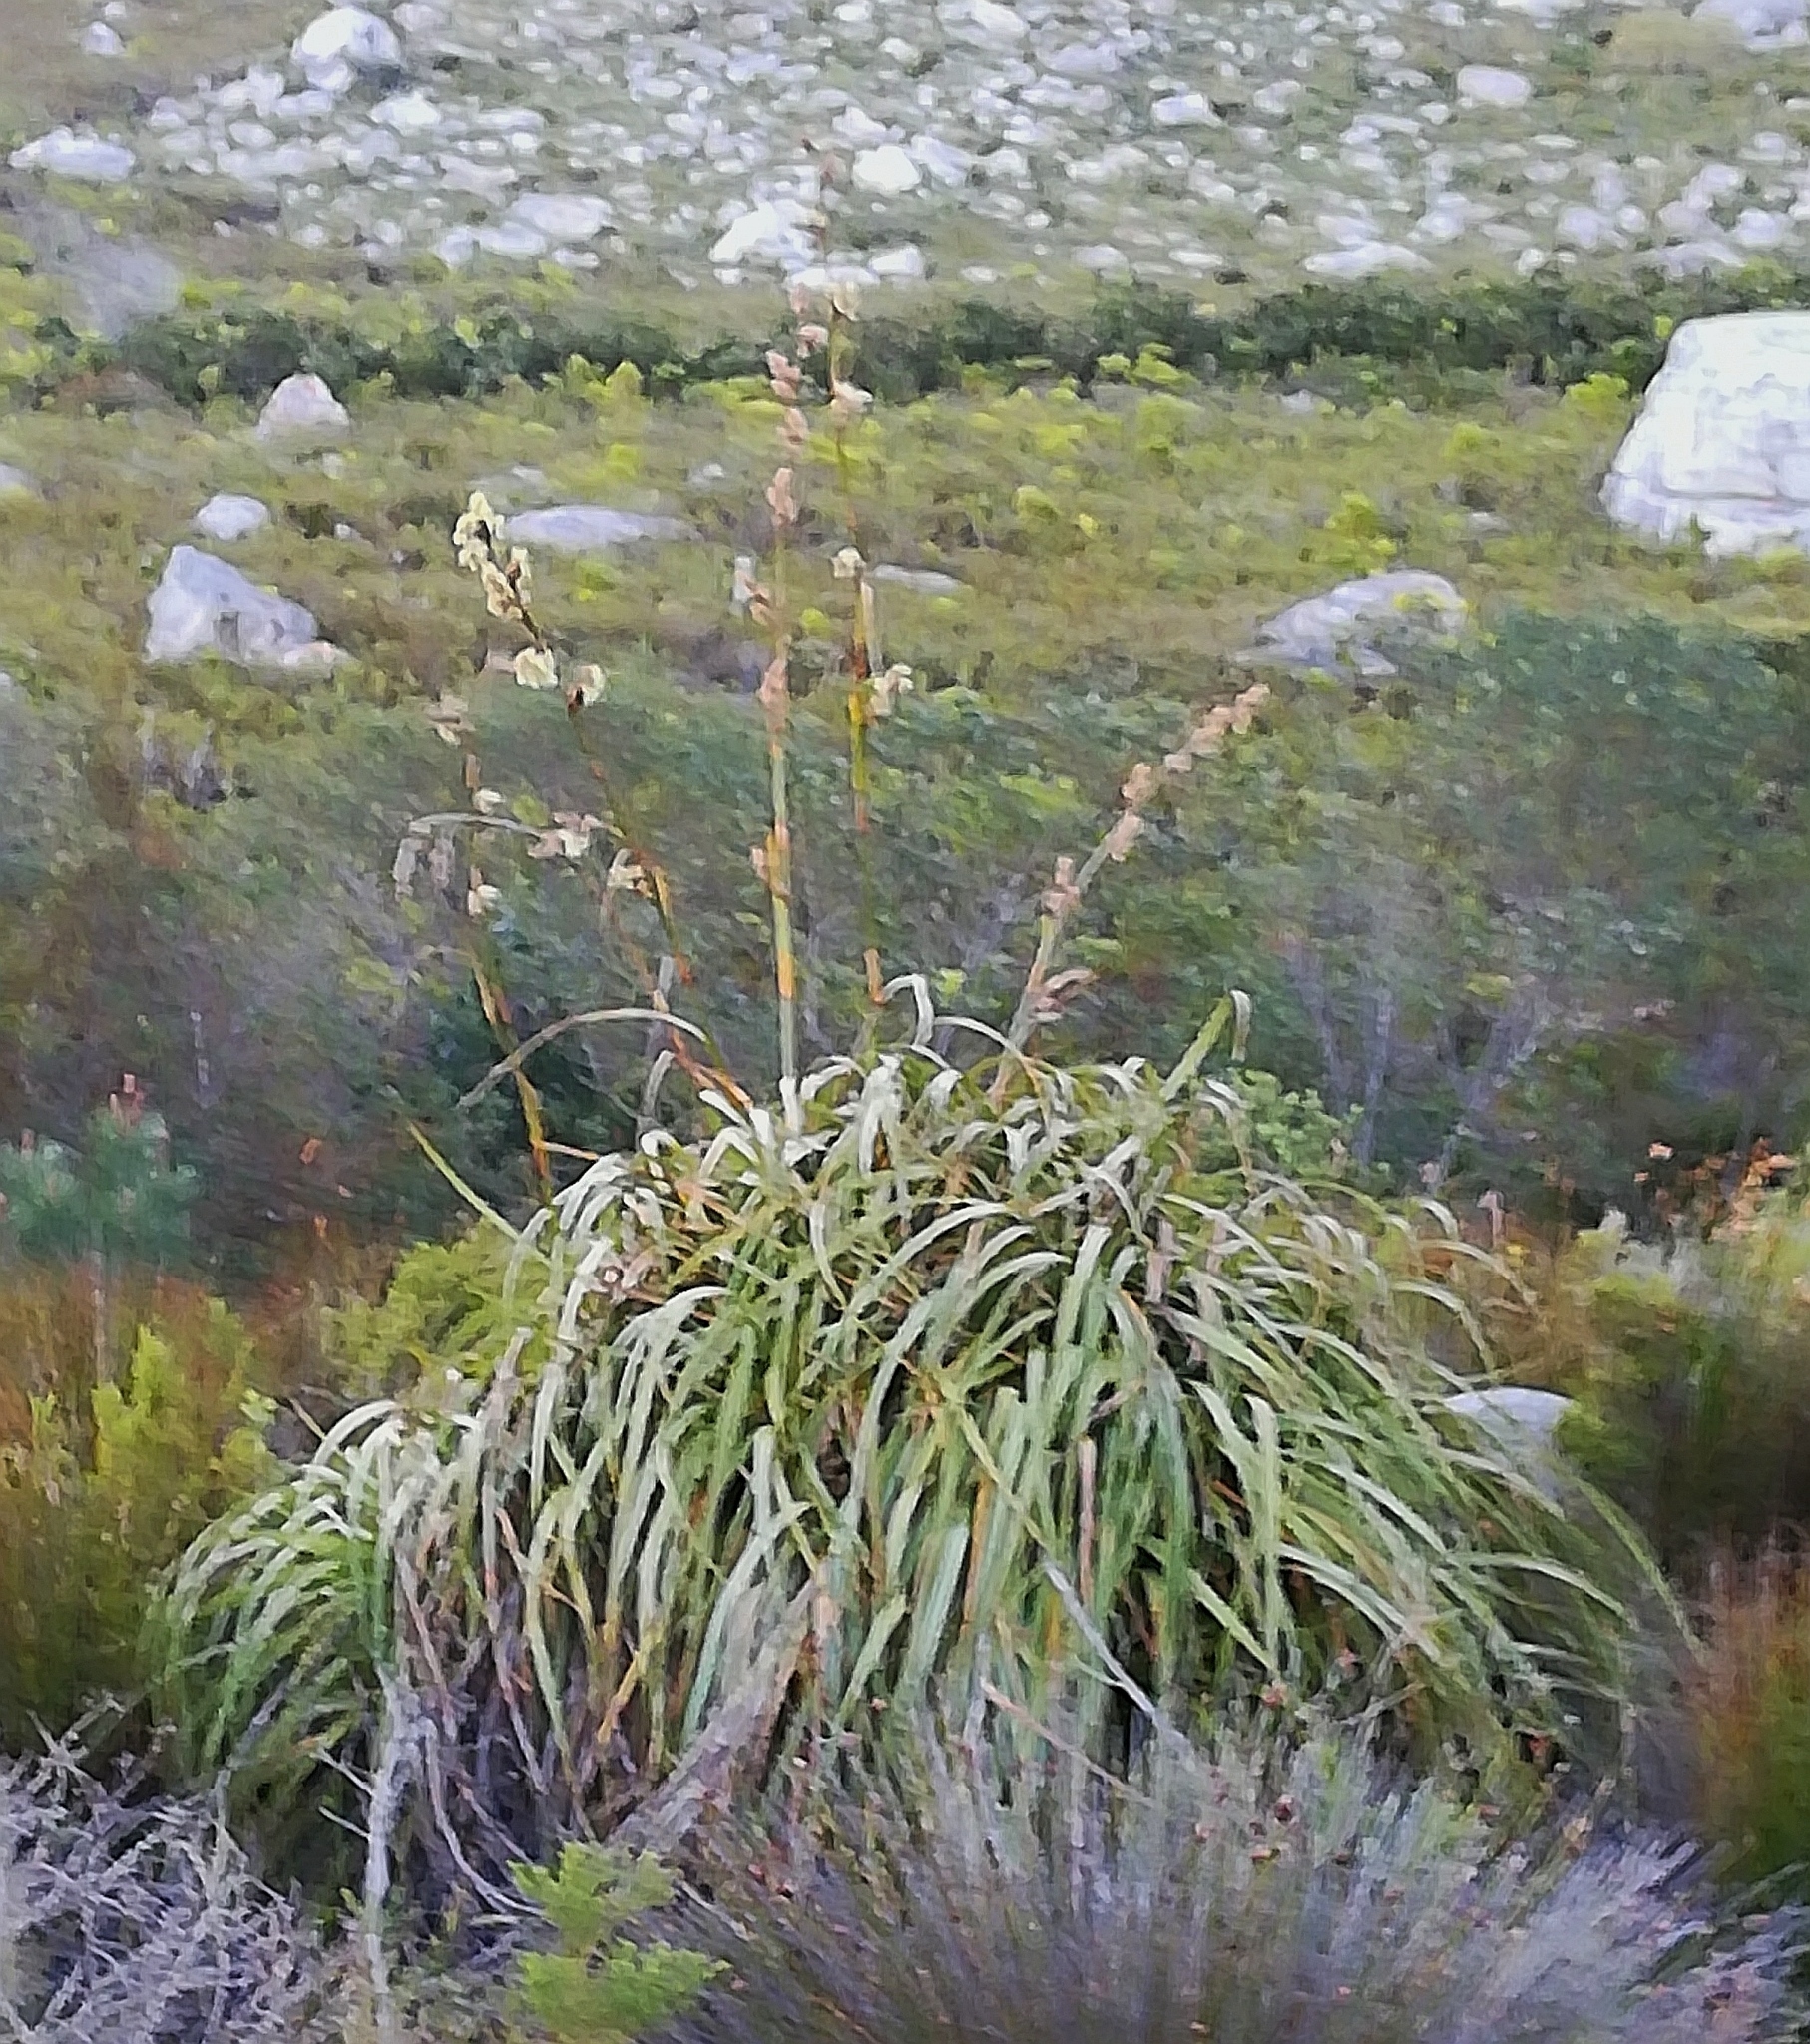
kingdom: Plantae
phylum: Tracheophyta
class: Liliopsida
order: Poales
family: Cyperaceae
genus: Tetraria
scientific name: Tetraria thermalis
